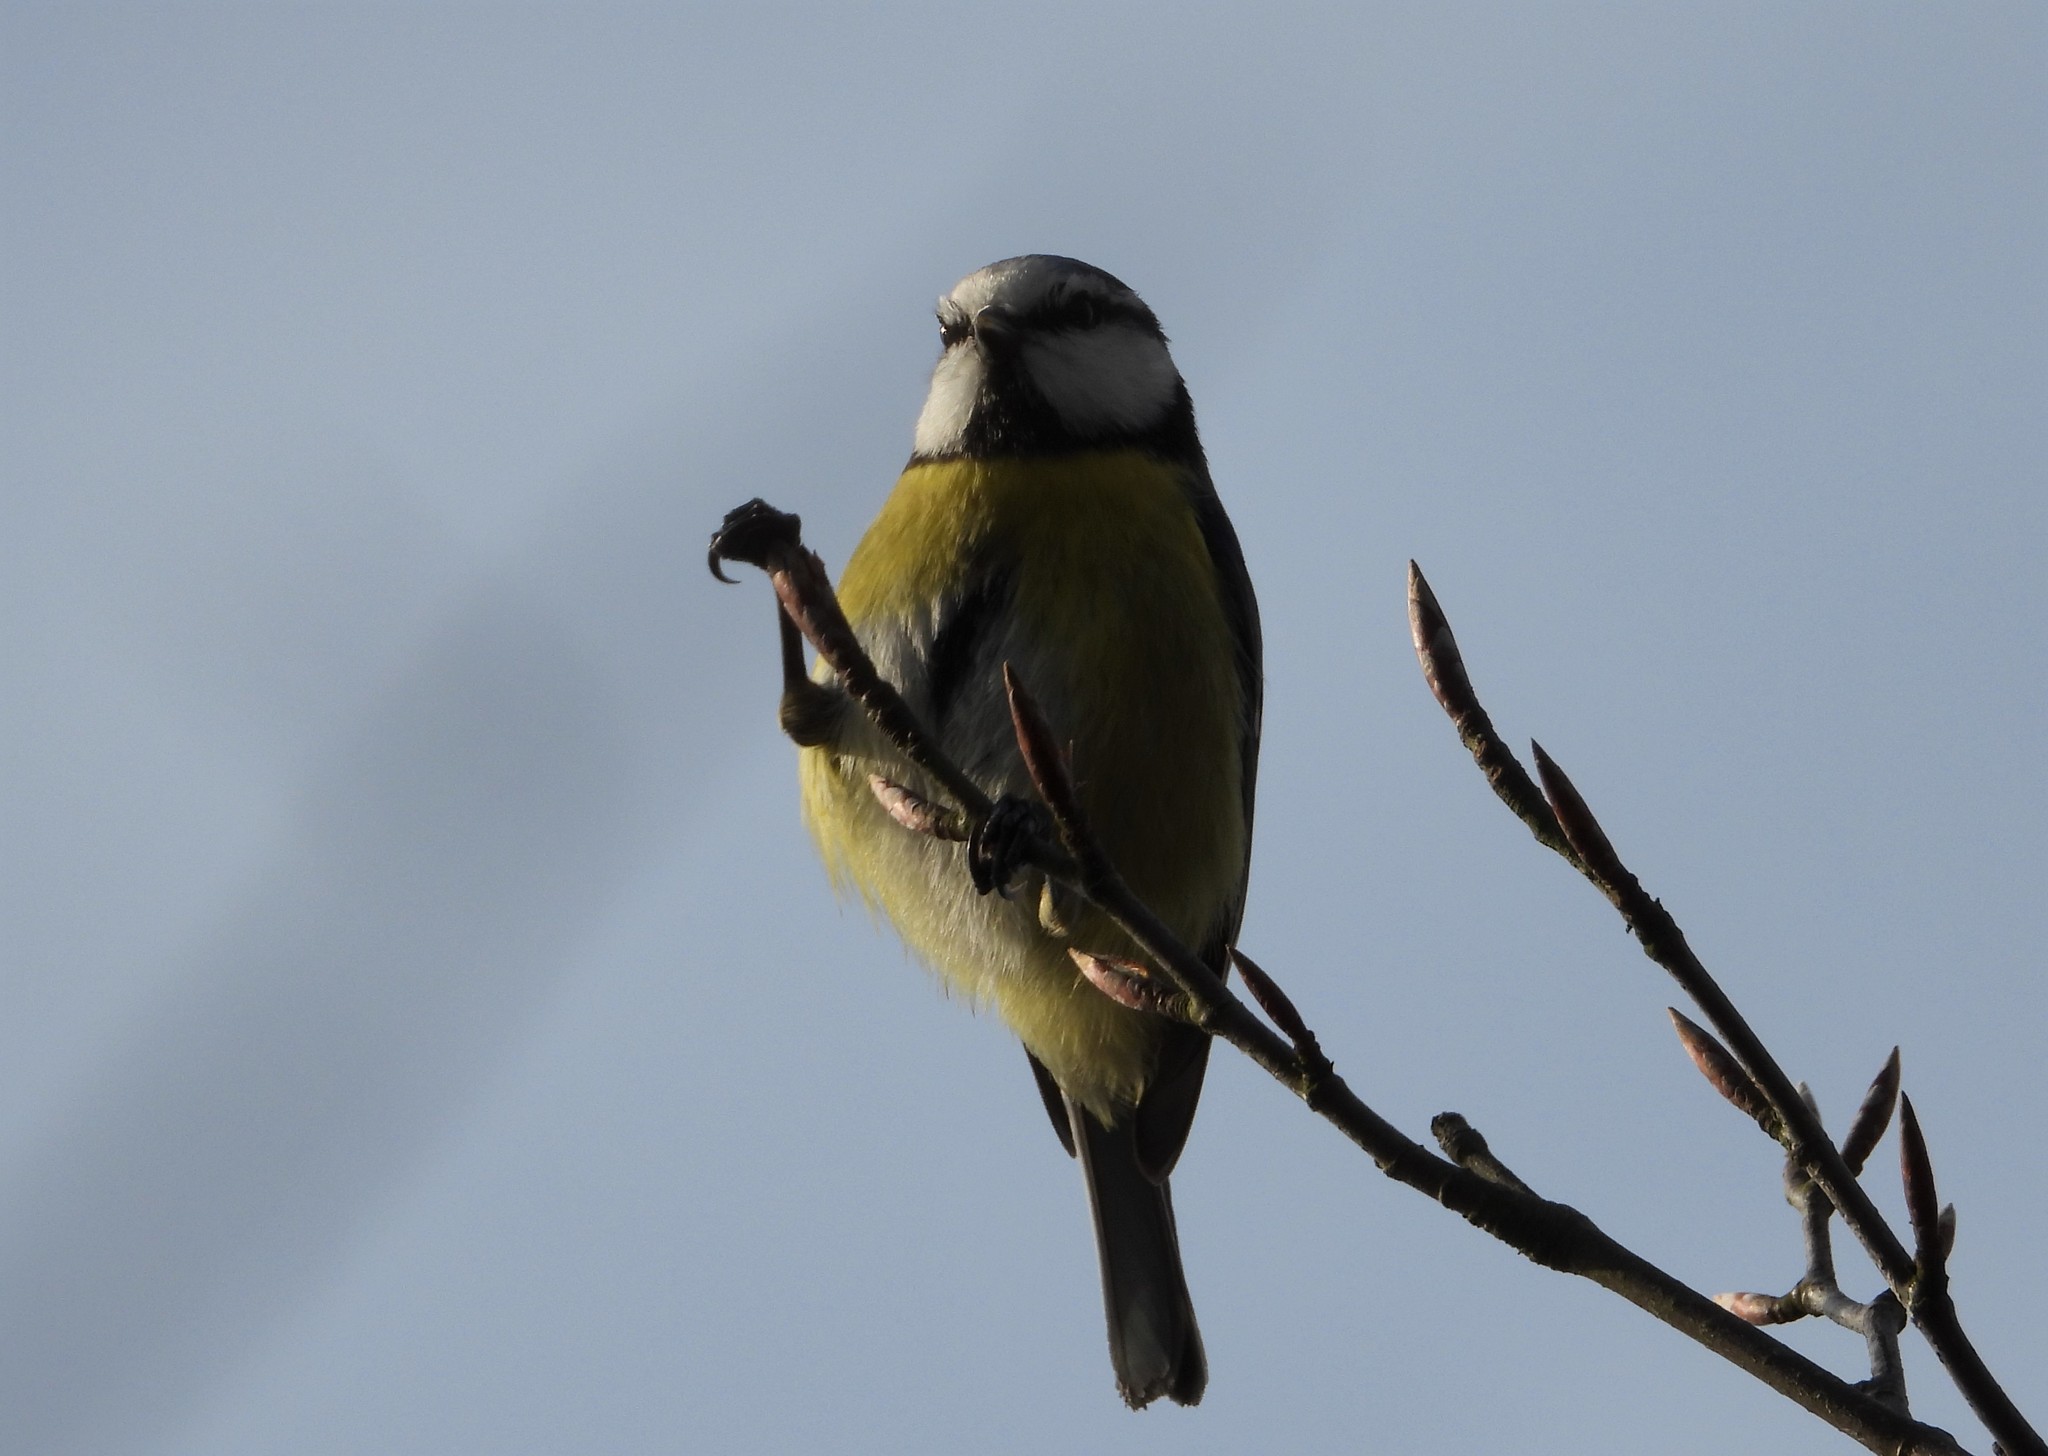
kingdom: Animalia
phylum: Chordata
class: Aves
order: Passeriformes
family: Paridae
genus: Cyanistes
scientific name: Cyanistes caeruleus
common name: Eurasian blue tit
